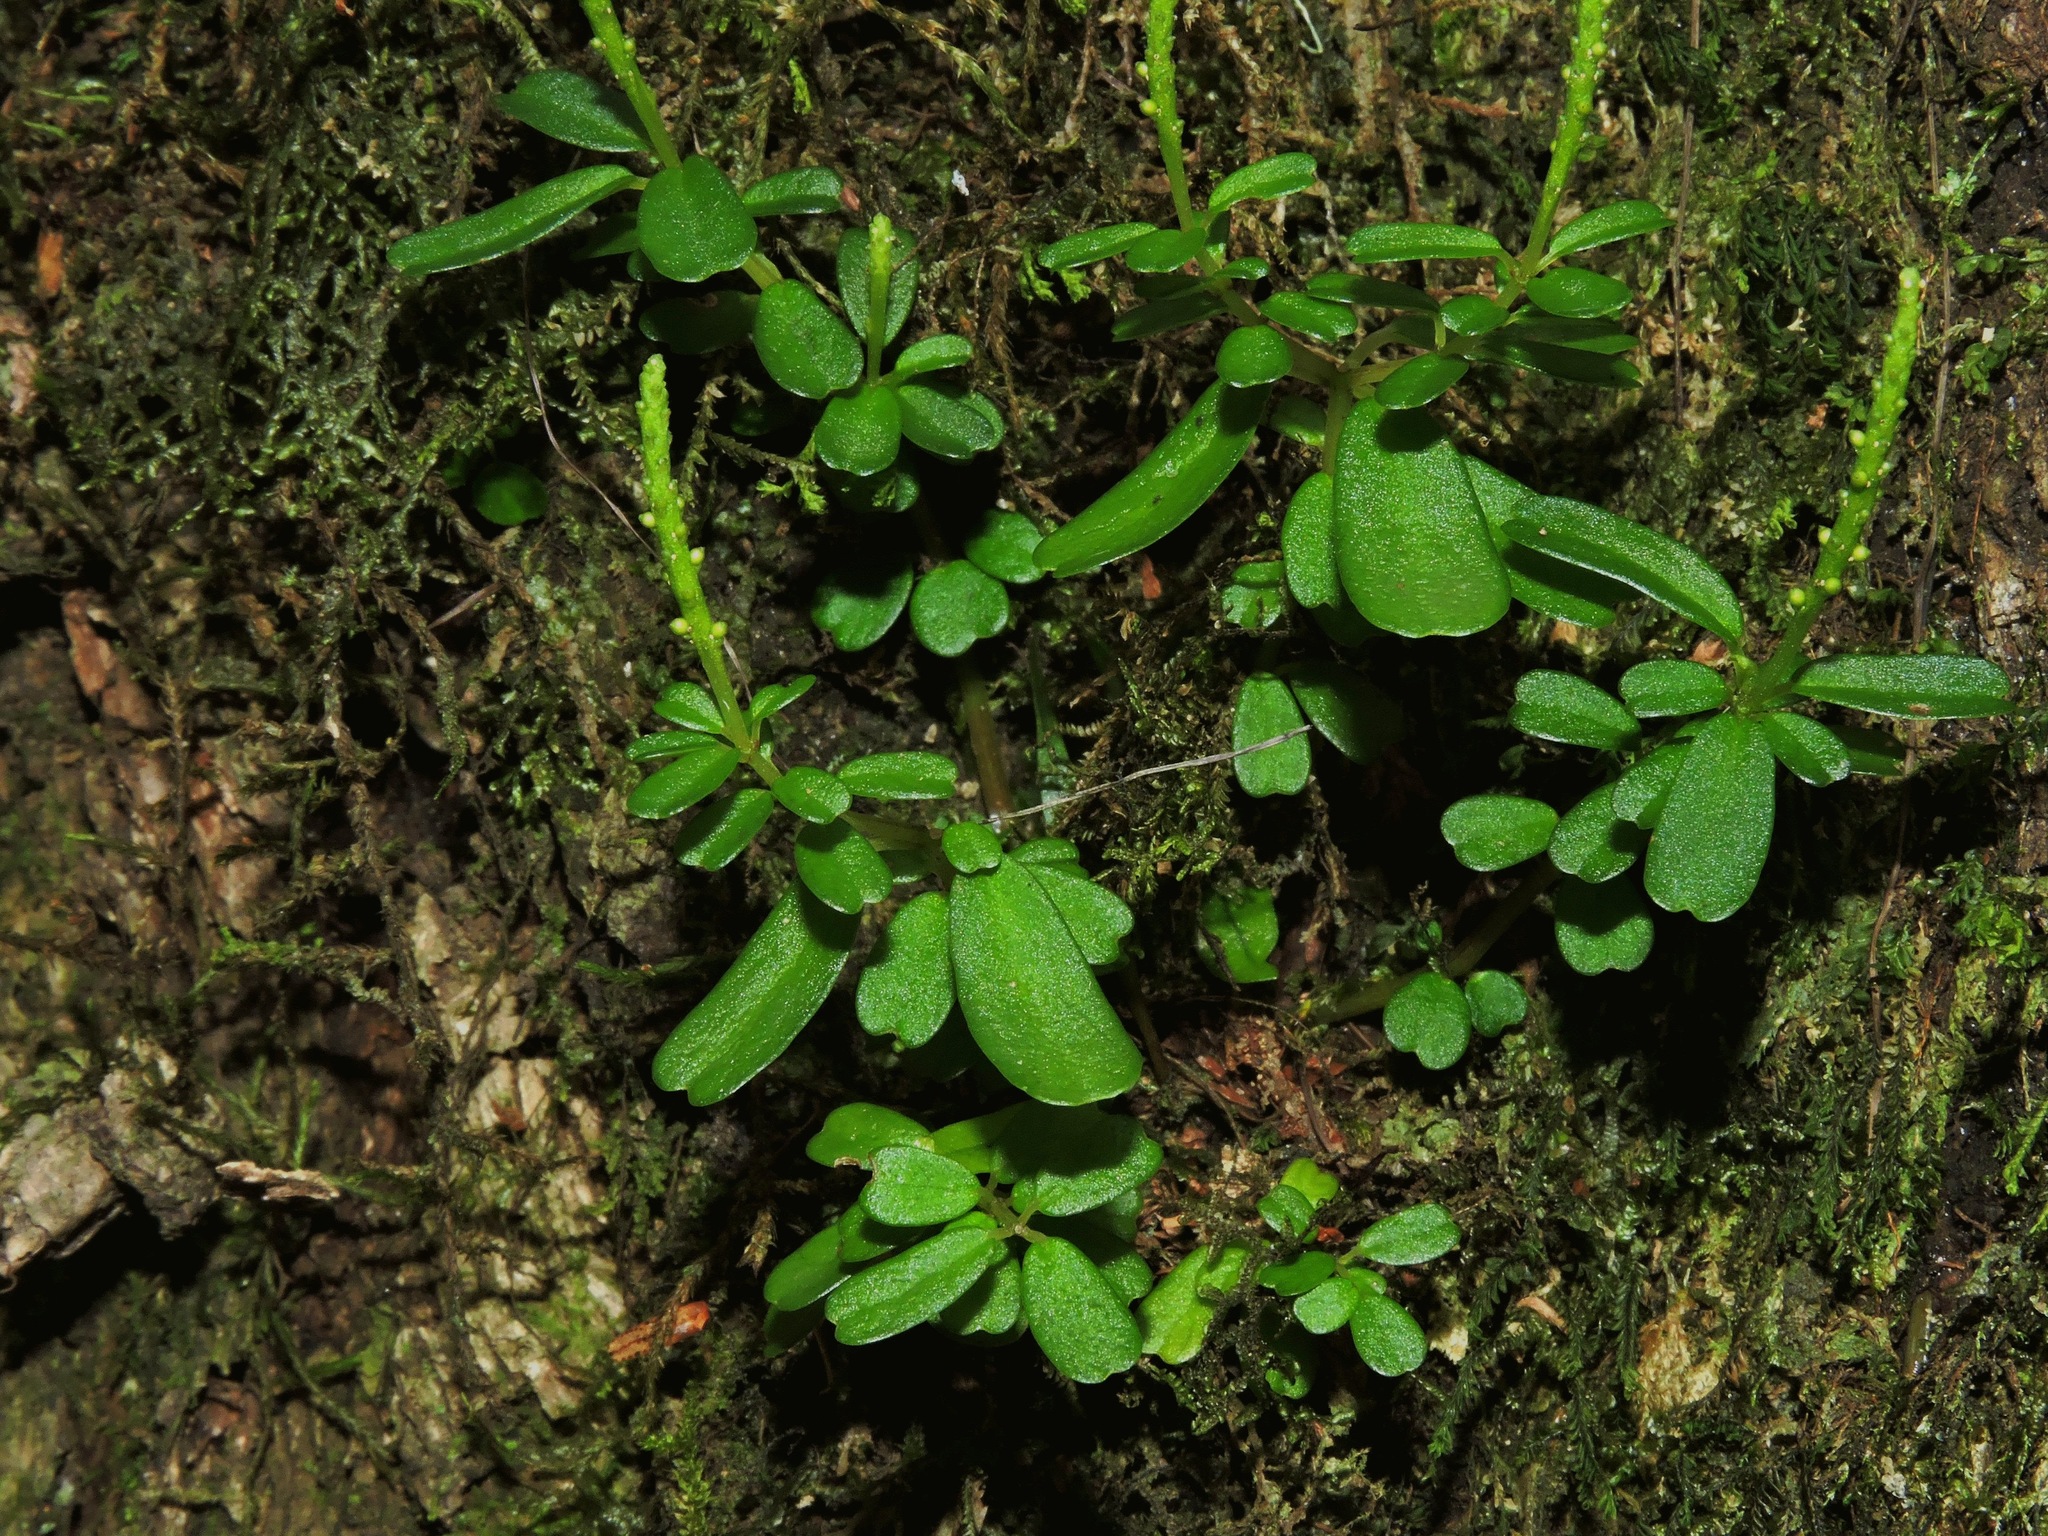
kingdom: Plantae
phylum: Tracheophyta
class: Magnoliopsida
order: Piperales
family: Piperaceae
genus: Peperomia
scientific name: Peperomia nakaharai
